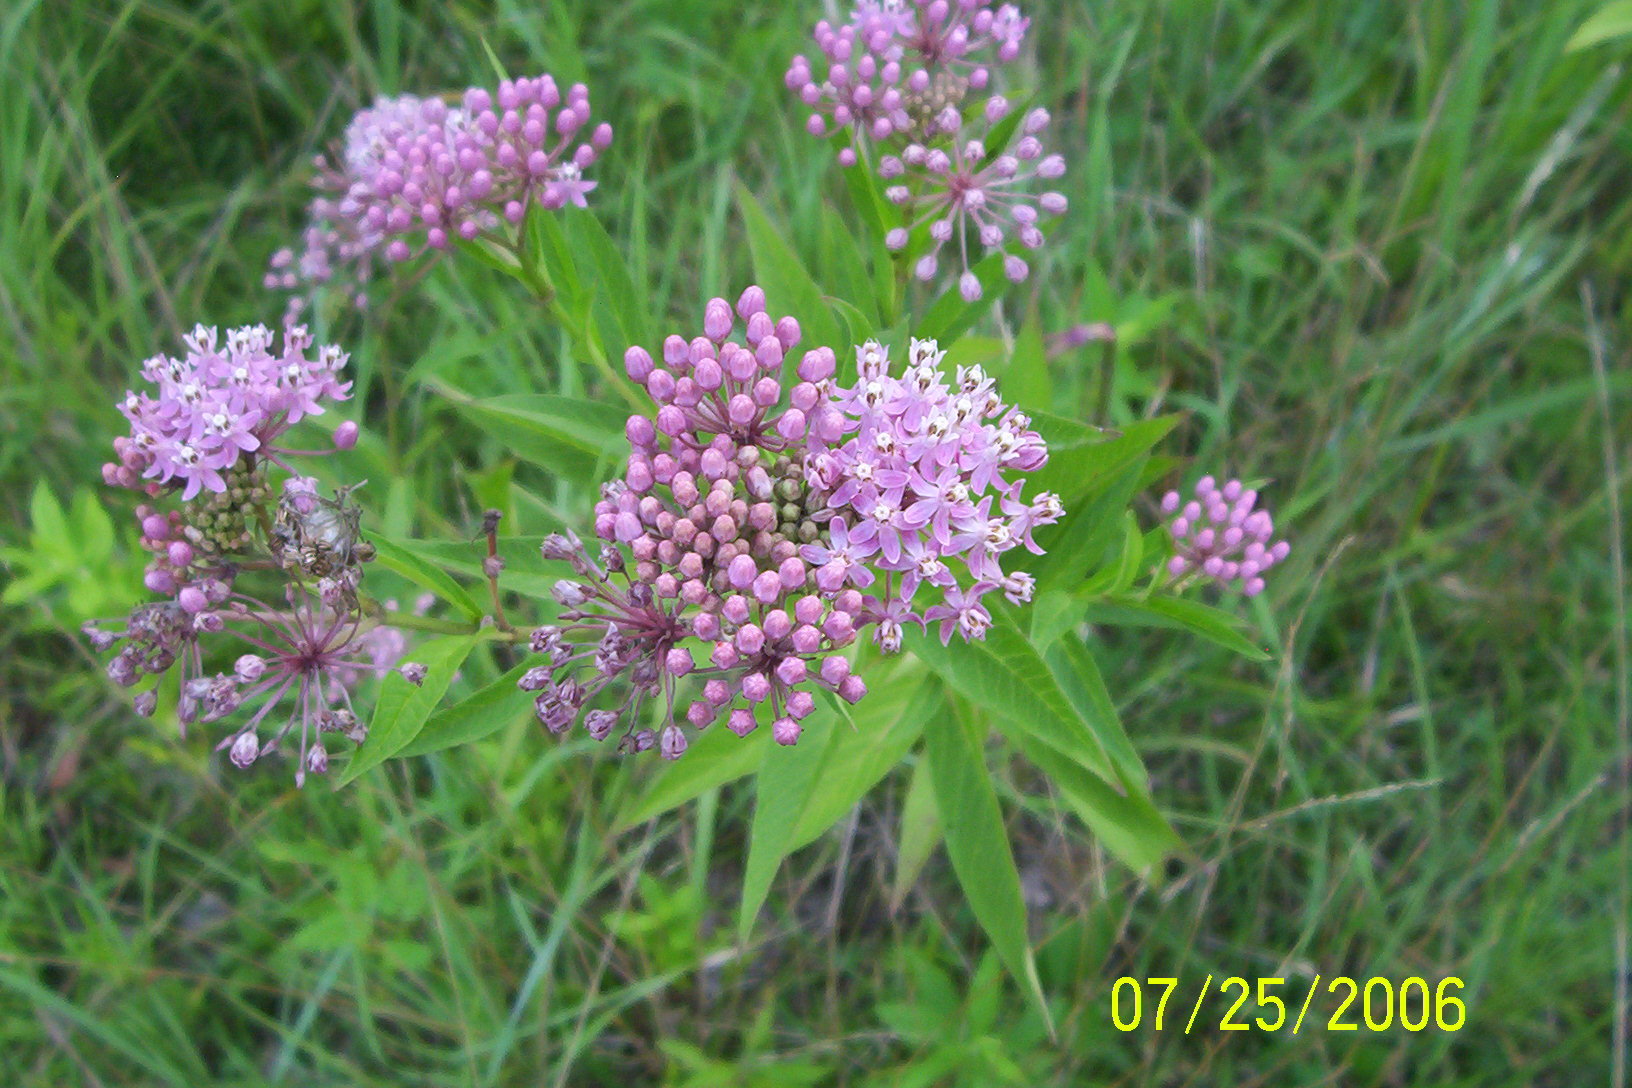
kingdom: Plantae
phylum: Tracheophyta
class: Magnoliopsida
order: Gentianales
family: Apocynaceae
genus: Asclepias
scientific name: Asclepias incarnata
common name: Swamp milkweed
